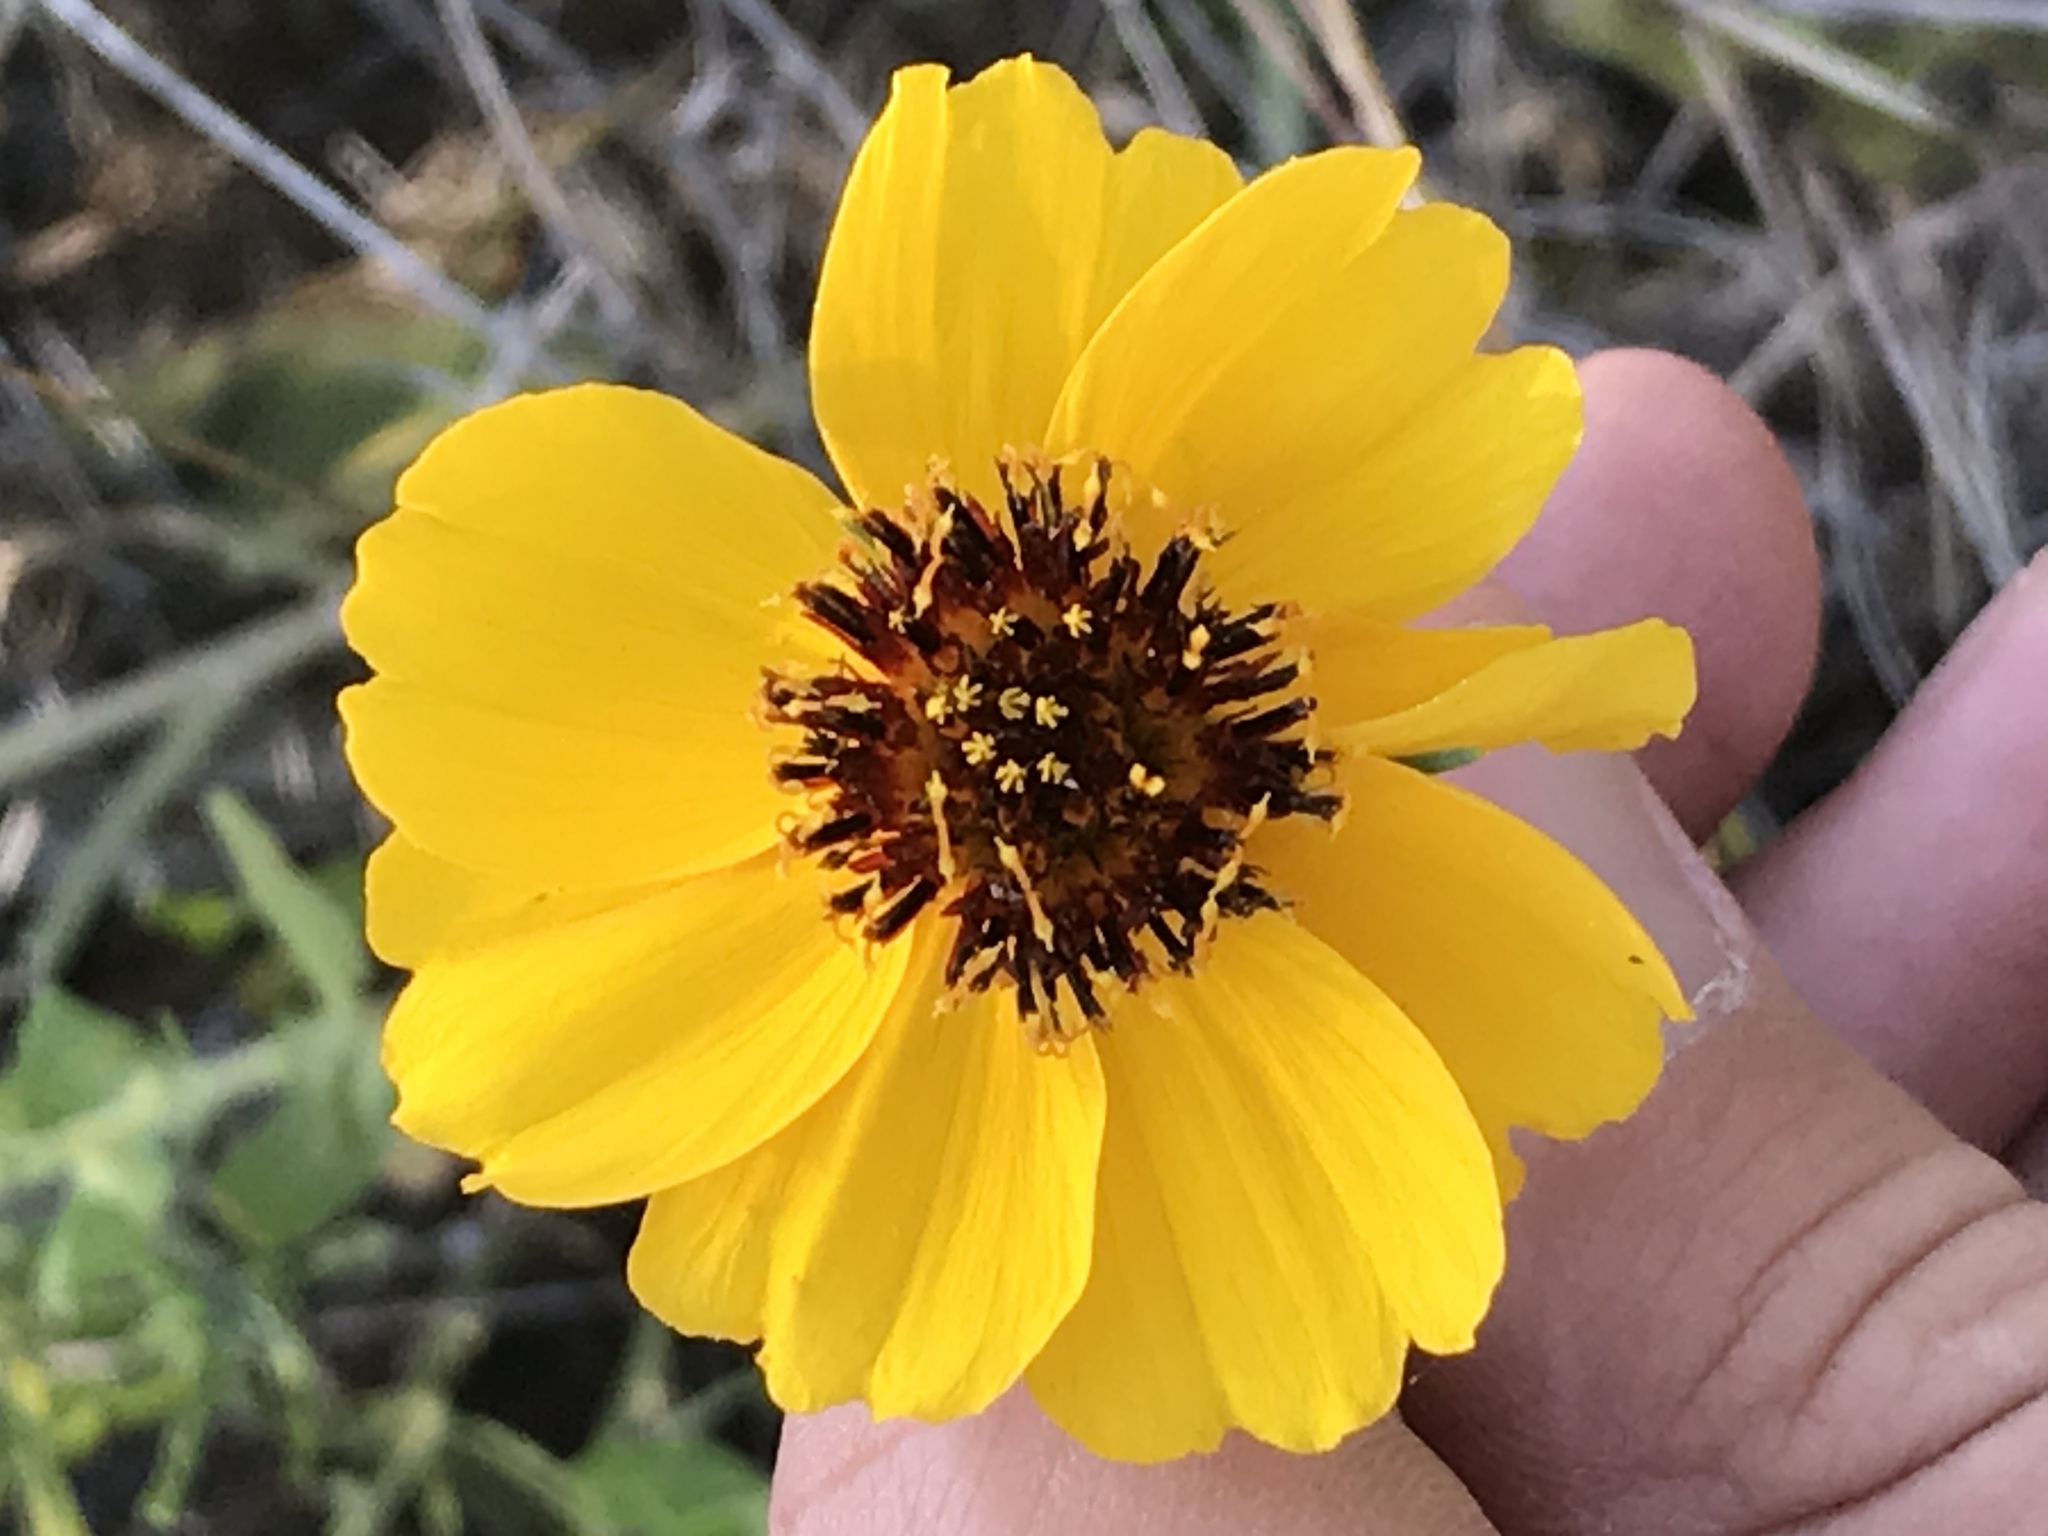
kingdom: Plantae
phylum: Tracheophyta
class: Magnoliopsida
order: Asterales
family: Asteraceae
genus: Thelesperma
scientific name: Thelesperma filifolium
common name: Stiff greenthread
